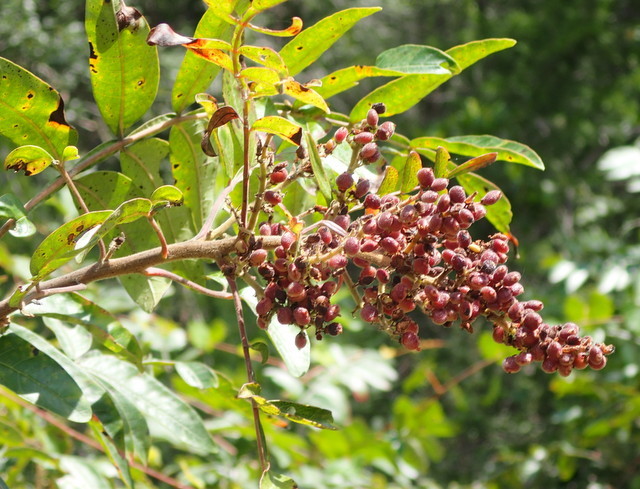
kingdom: Plantae
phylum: Tracheophyta
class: Magnoliopsida
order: Sapindales
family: Anacardiaceae
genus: Rhus
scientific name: Rhus copallina
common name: Shining sumac
